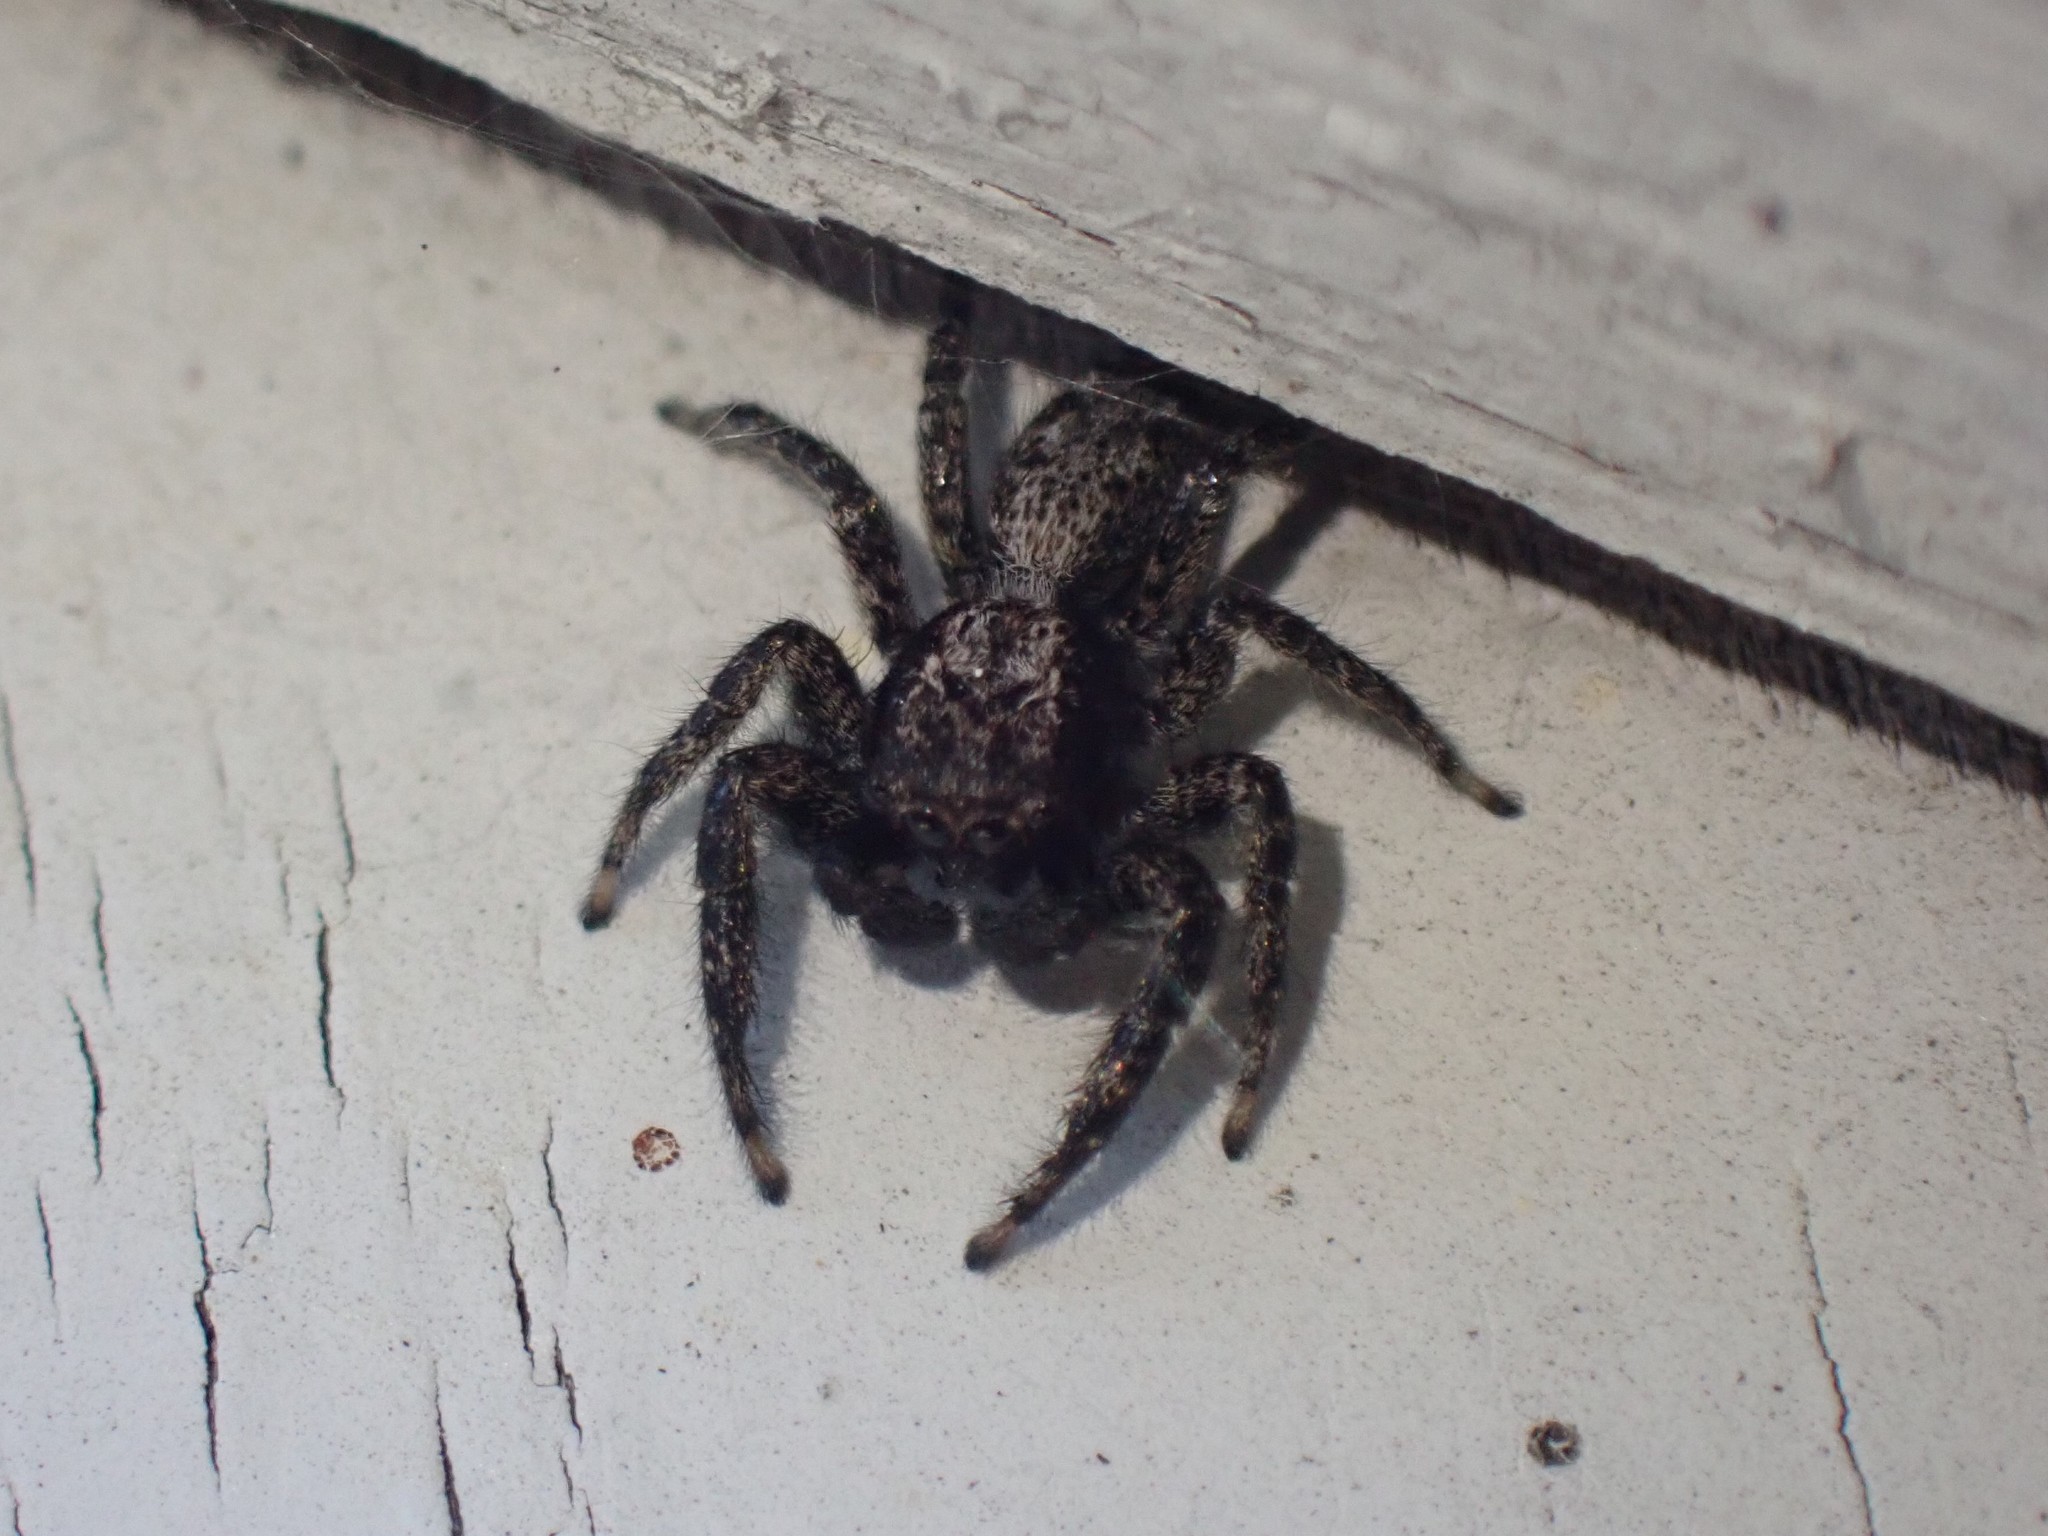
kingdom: Animalia
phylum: Arthropoda
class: Arachnida
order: Araneae
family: Salticidae
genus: Platycryptus
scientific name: Platycryptus californicus
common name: Jumping spiders
